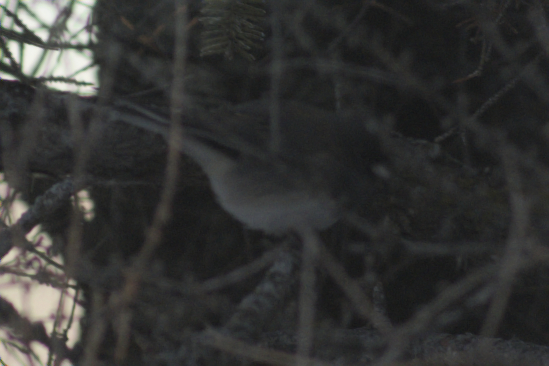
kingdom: Animalia
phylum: Chordata
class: Aves
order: Passeriformes
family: Passerellidae
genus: Junco
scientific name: Junco hyemalis
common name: Dark-eyed junco
